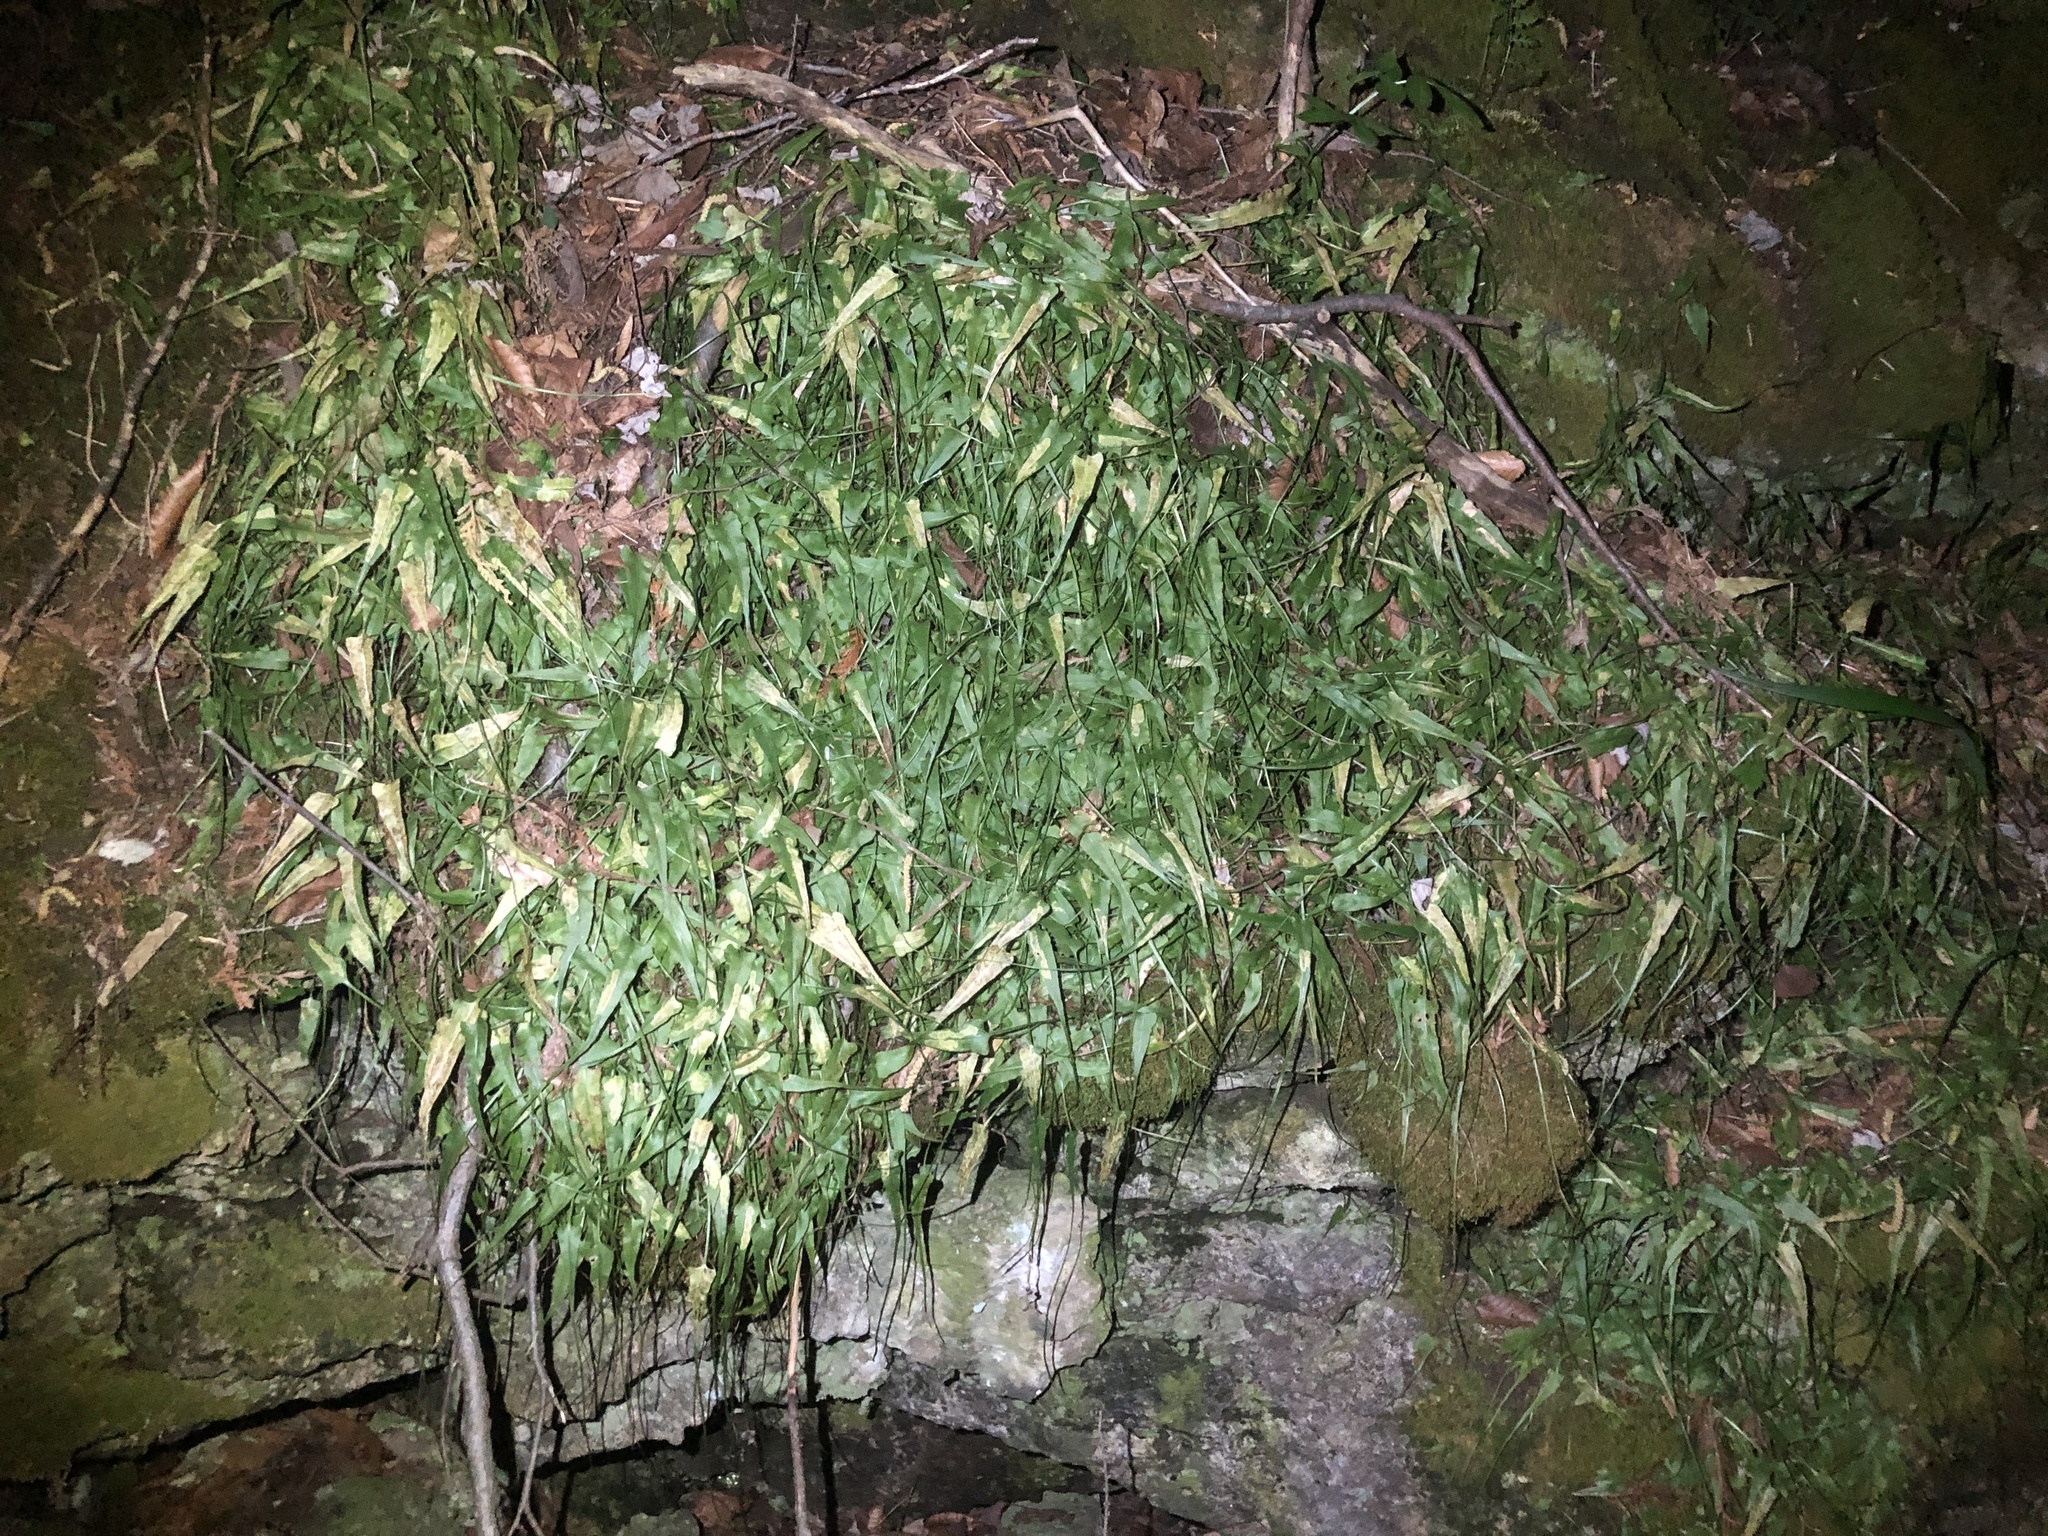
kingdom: Plantae
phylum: Tracheophyta
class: Polypodiopsida
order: Polypodiales
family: Aspleniaceae
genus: Asplenium
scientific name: Asplenium rhizophyllum
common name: Walking fern
